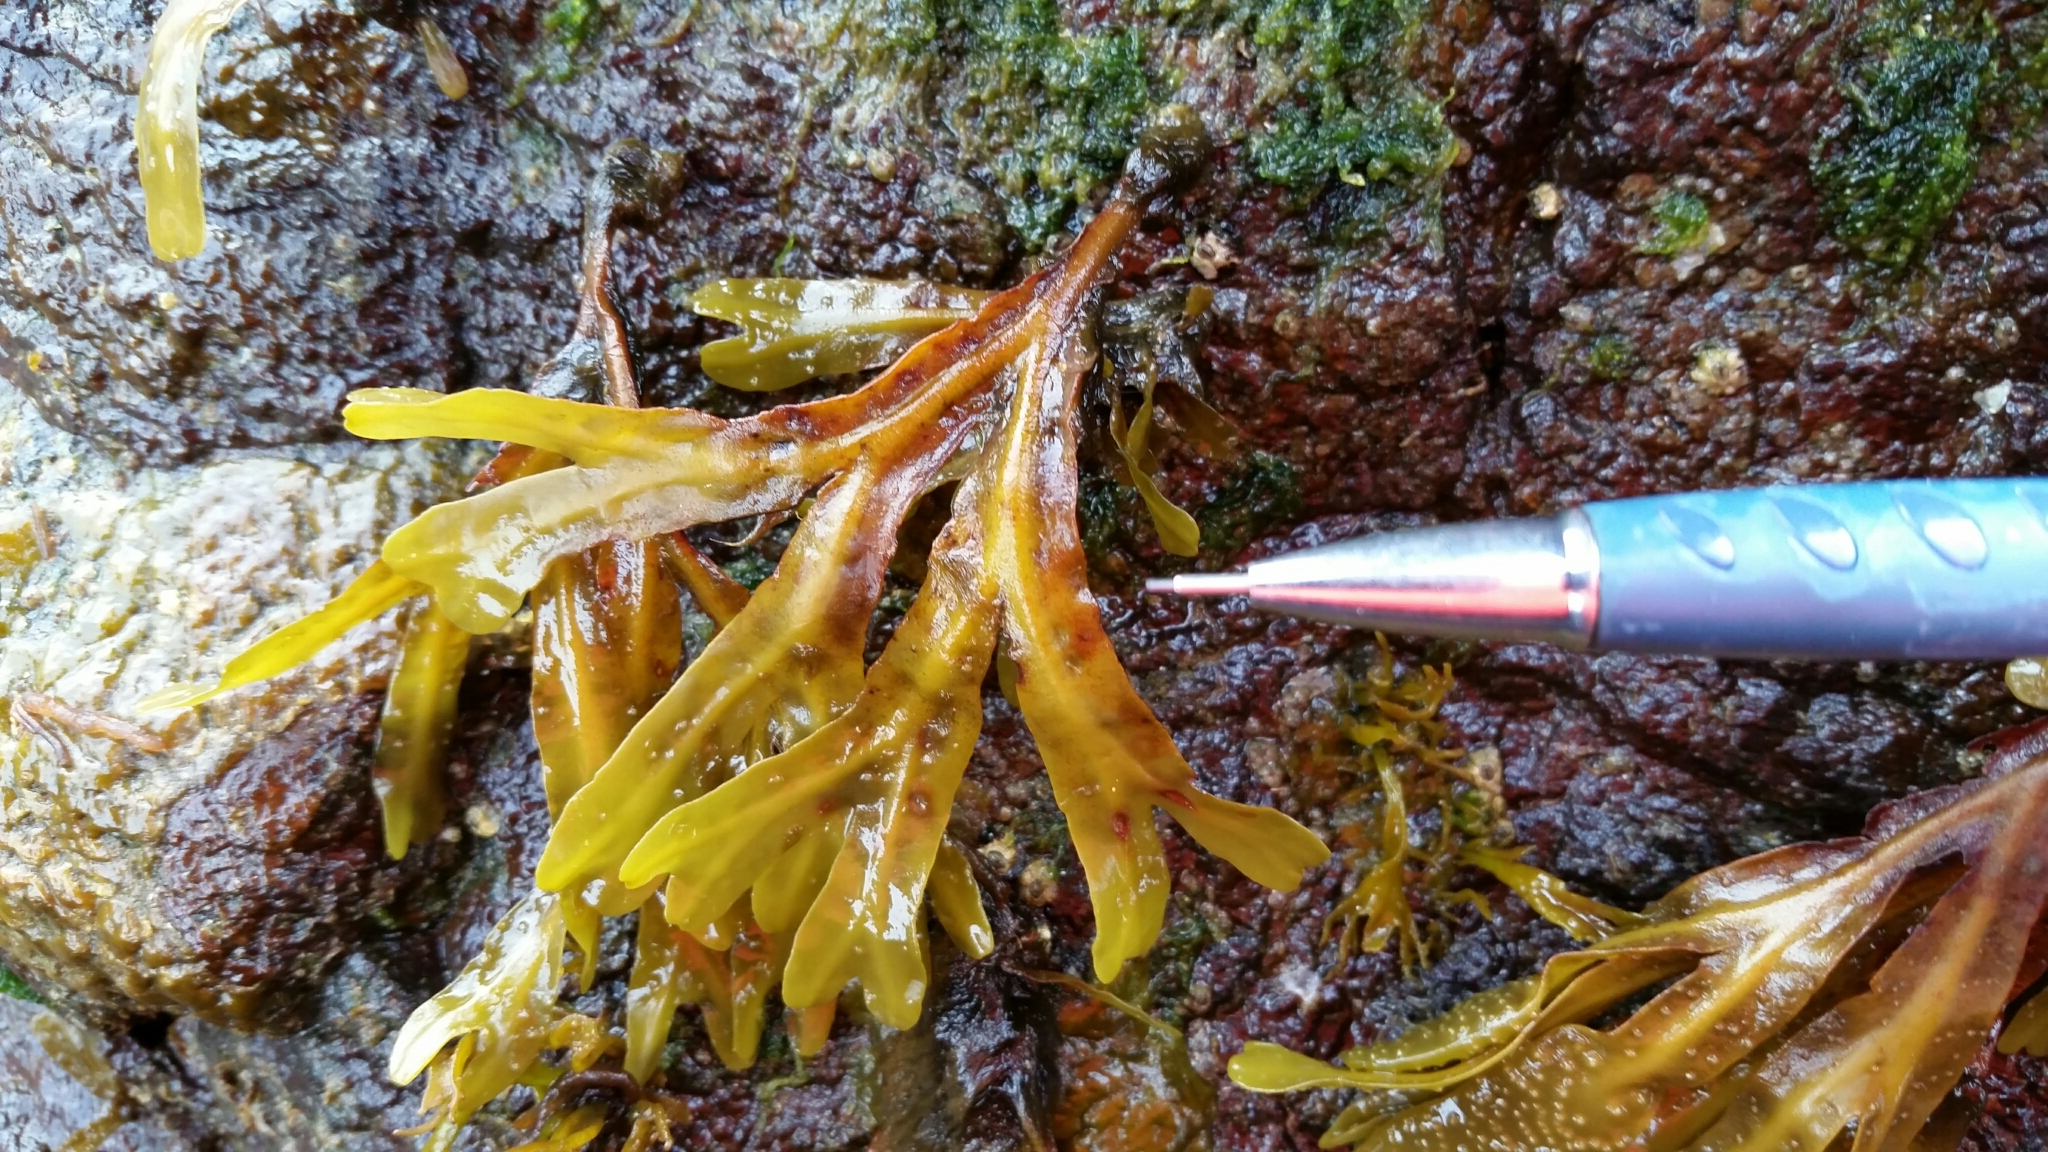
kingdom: Chromista
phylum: Ochrophyta
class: Phaeophyceae
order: Fucales
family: Fucaceae
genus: Fucus
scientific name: Fucus distichus
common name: Rockweed
